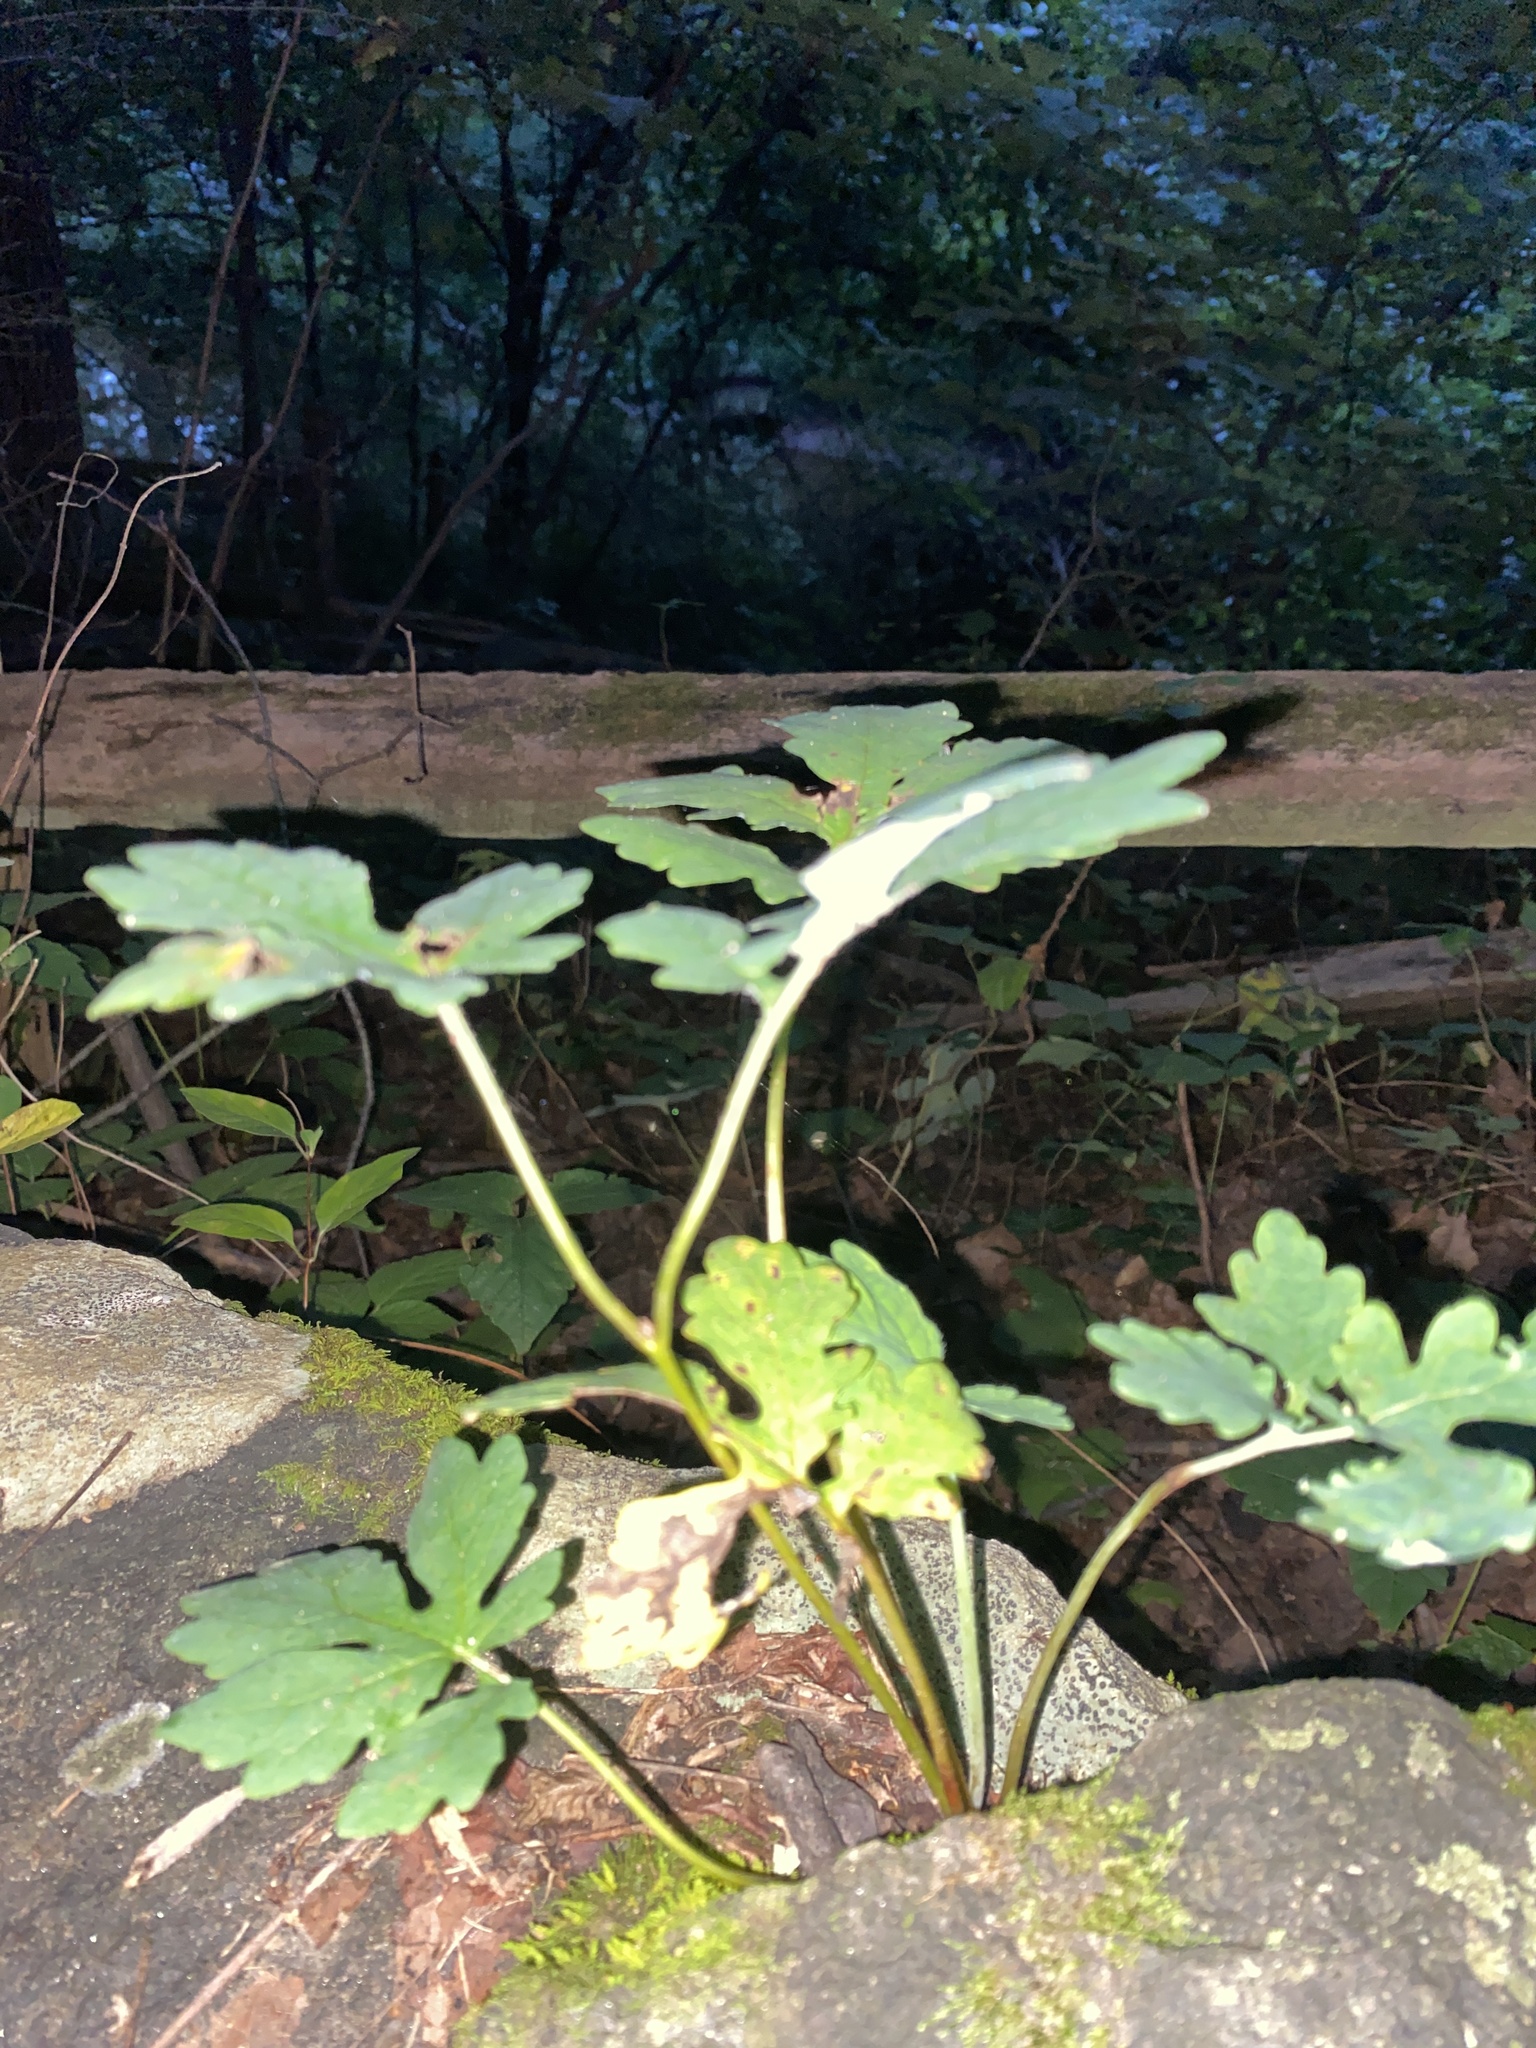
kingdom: Plantae
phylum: Tracheophyta
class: Magnoliopsida
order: Ranunculales
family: Papaveraceae
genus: Stylophorum
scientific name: Stylophorum diphyllum
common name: Celandine poppy
